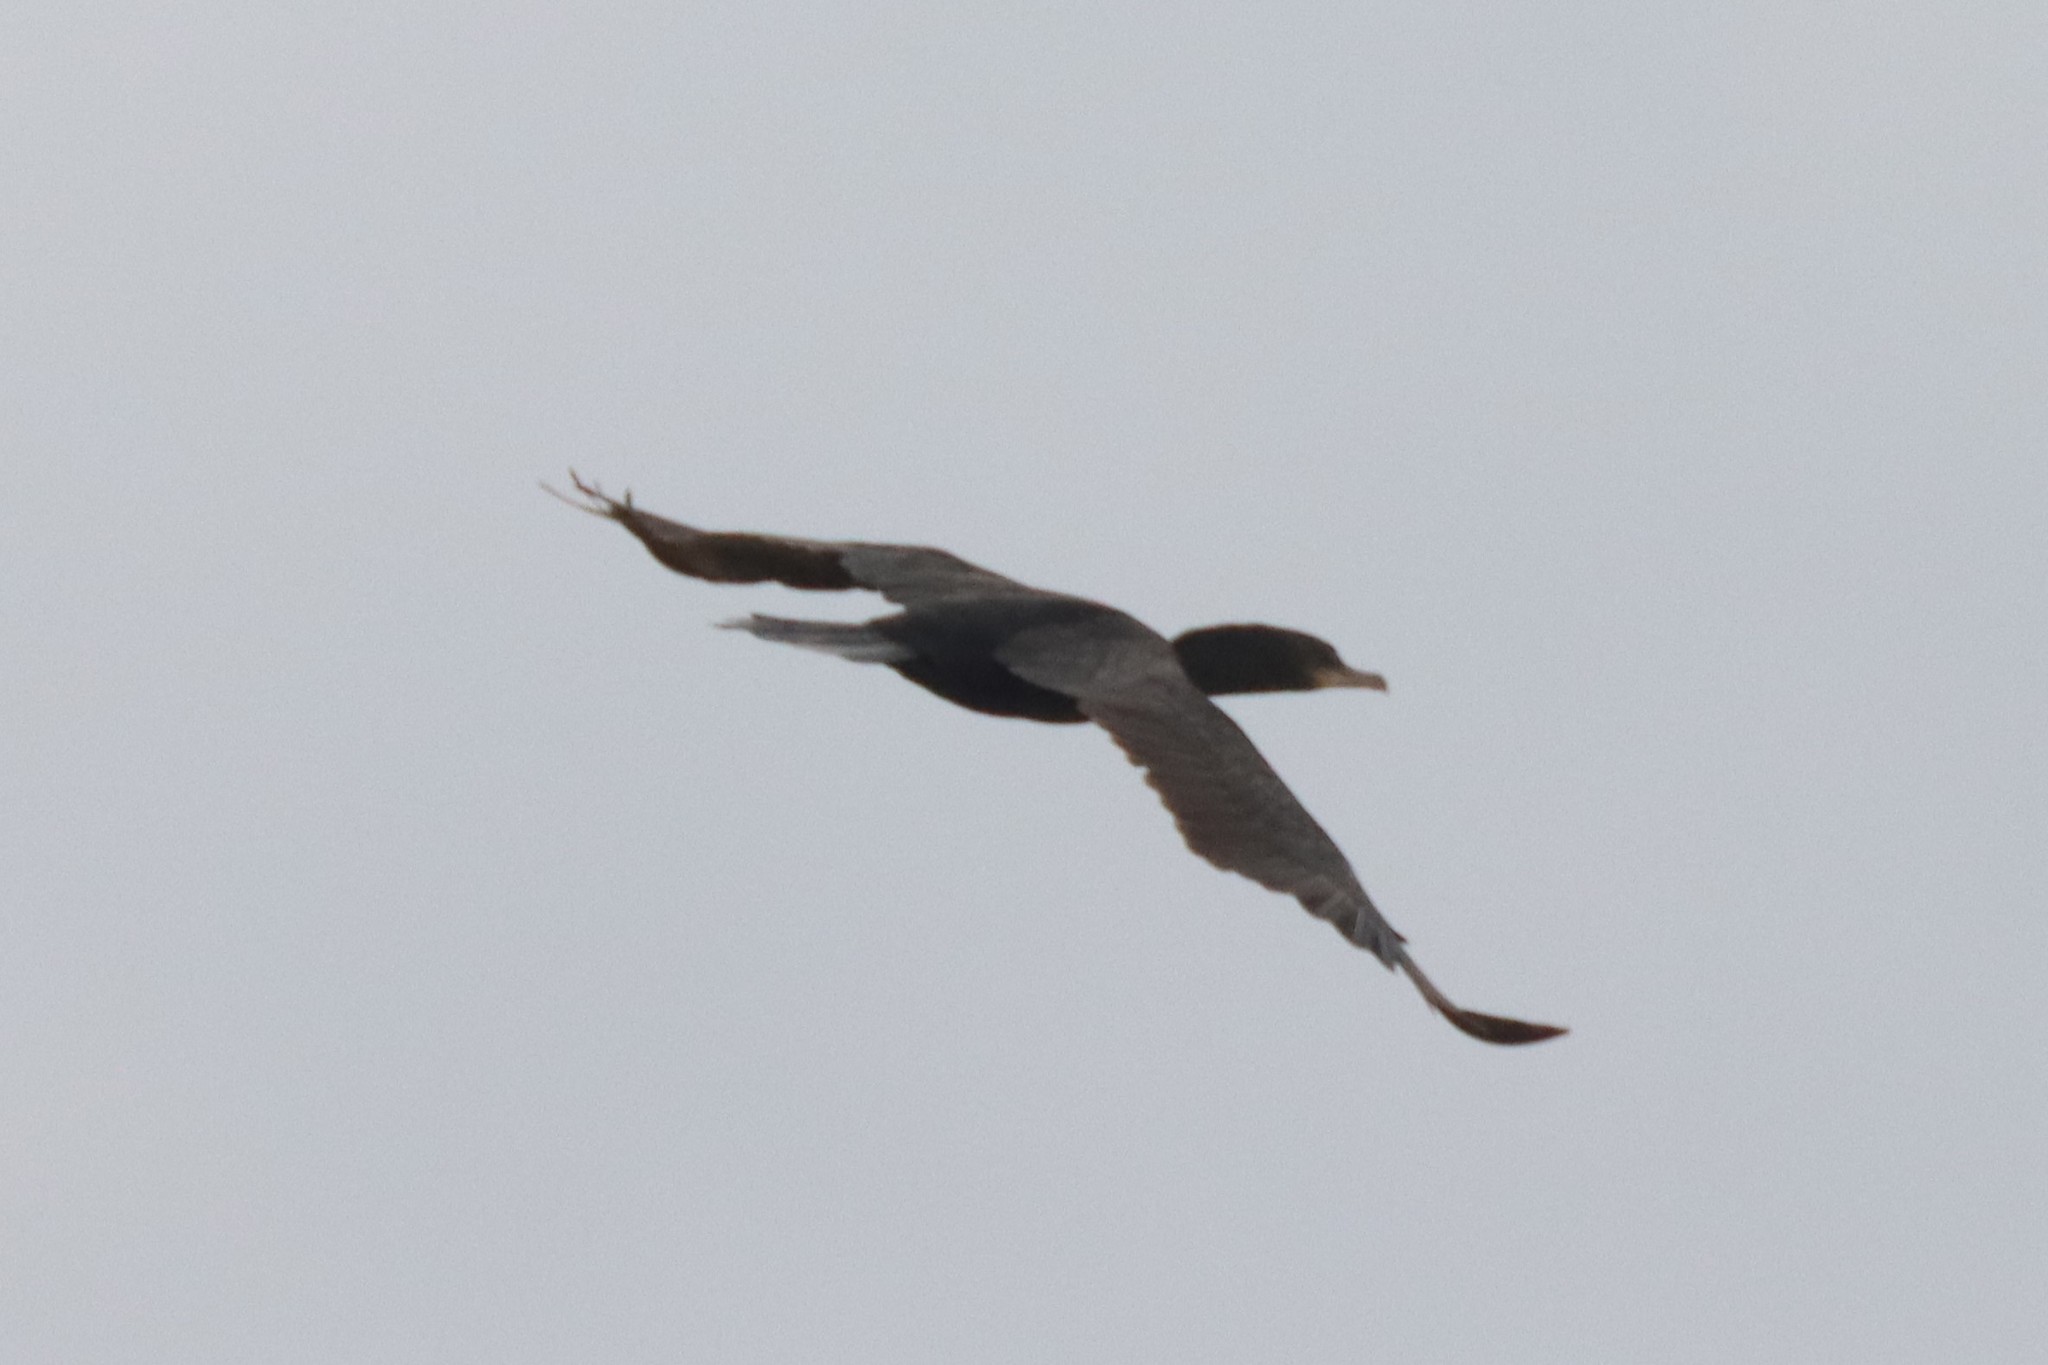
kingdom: Animalia
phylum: Chordata
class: Aves
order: Suliformes
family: Phalacrocoracidae
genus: Phalacrocorax
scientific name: Phalacrocorax brasilianus
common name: Neotropic cormorant
